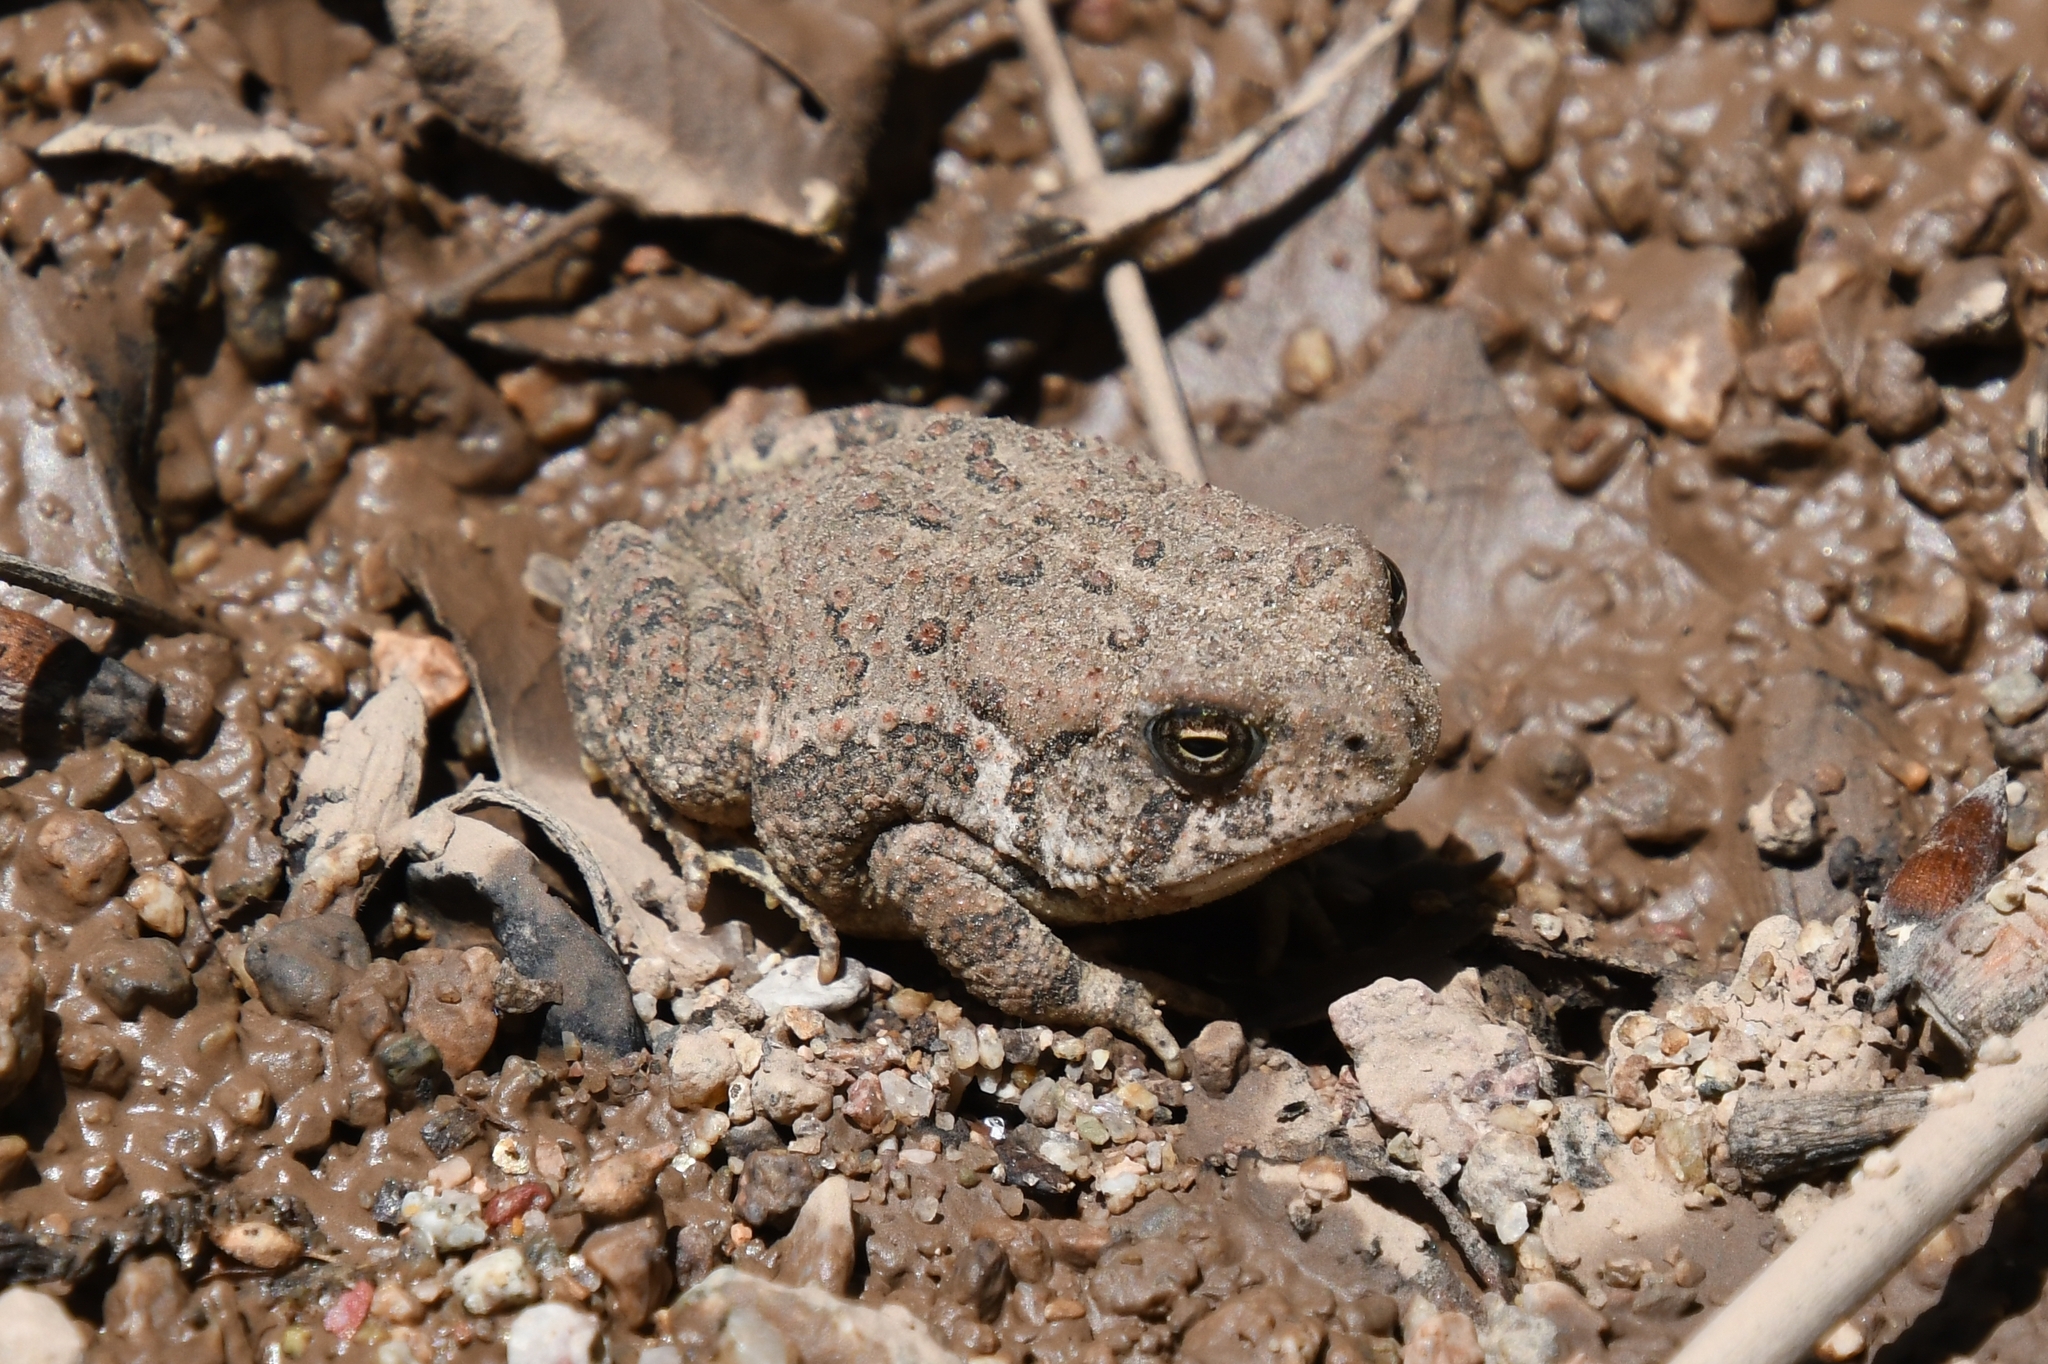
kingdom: Animalia
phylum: Chordata
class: Amphibia
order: Anura
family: Bufonidae
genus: Anaxyrus
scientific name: Anaxyrus woodhousii
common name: Woodhouse's toad
